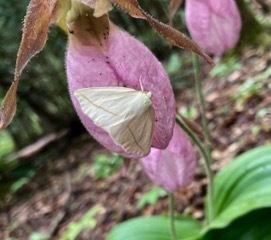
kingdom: Animalia
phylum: Arthropoda
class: Insecta
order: Lepidoptera
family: Geometridae
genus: Tetracis
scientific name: Tetracis cachexiata
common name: White slant-line
